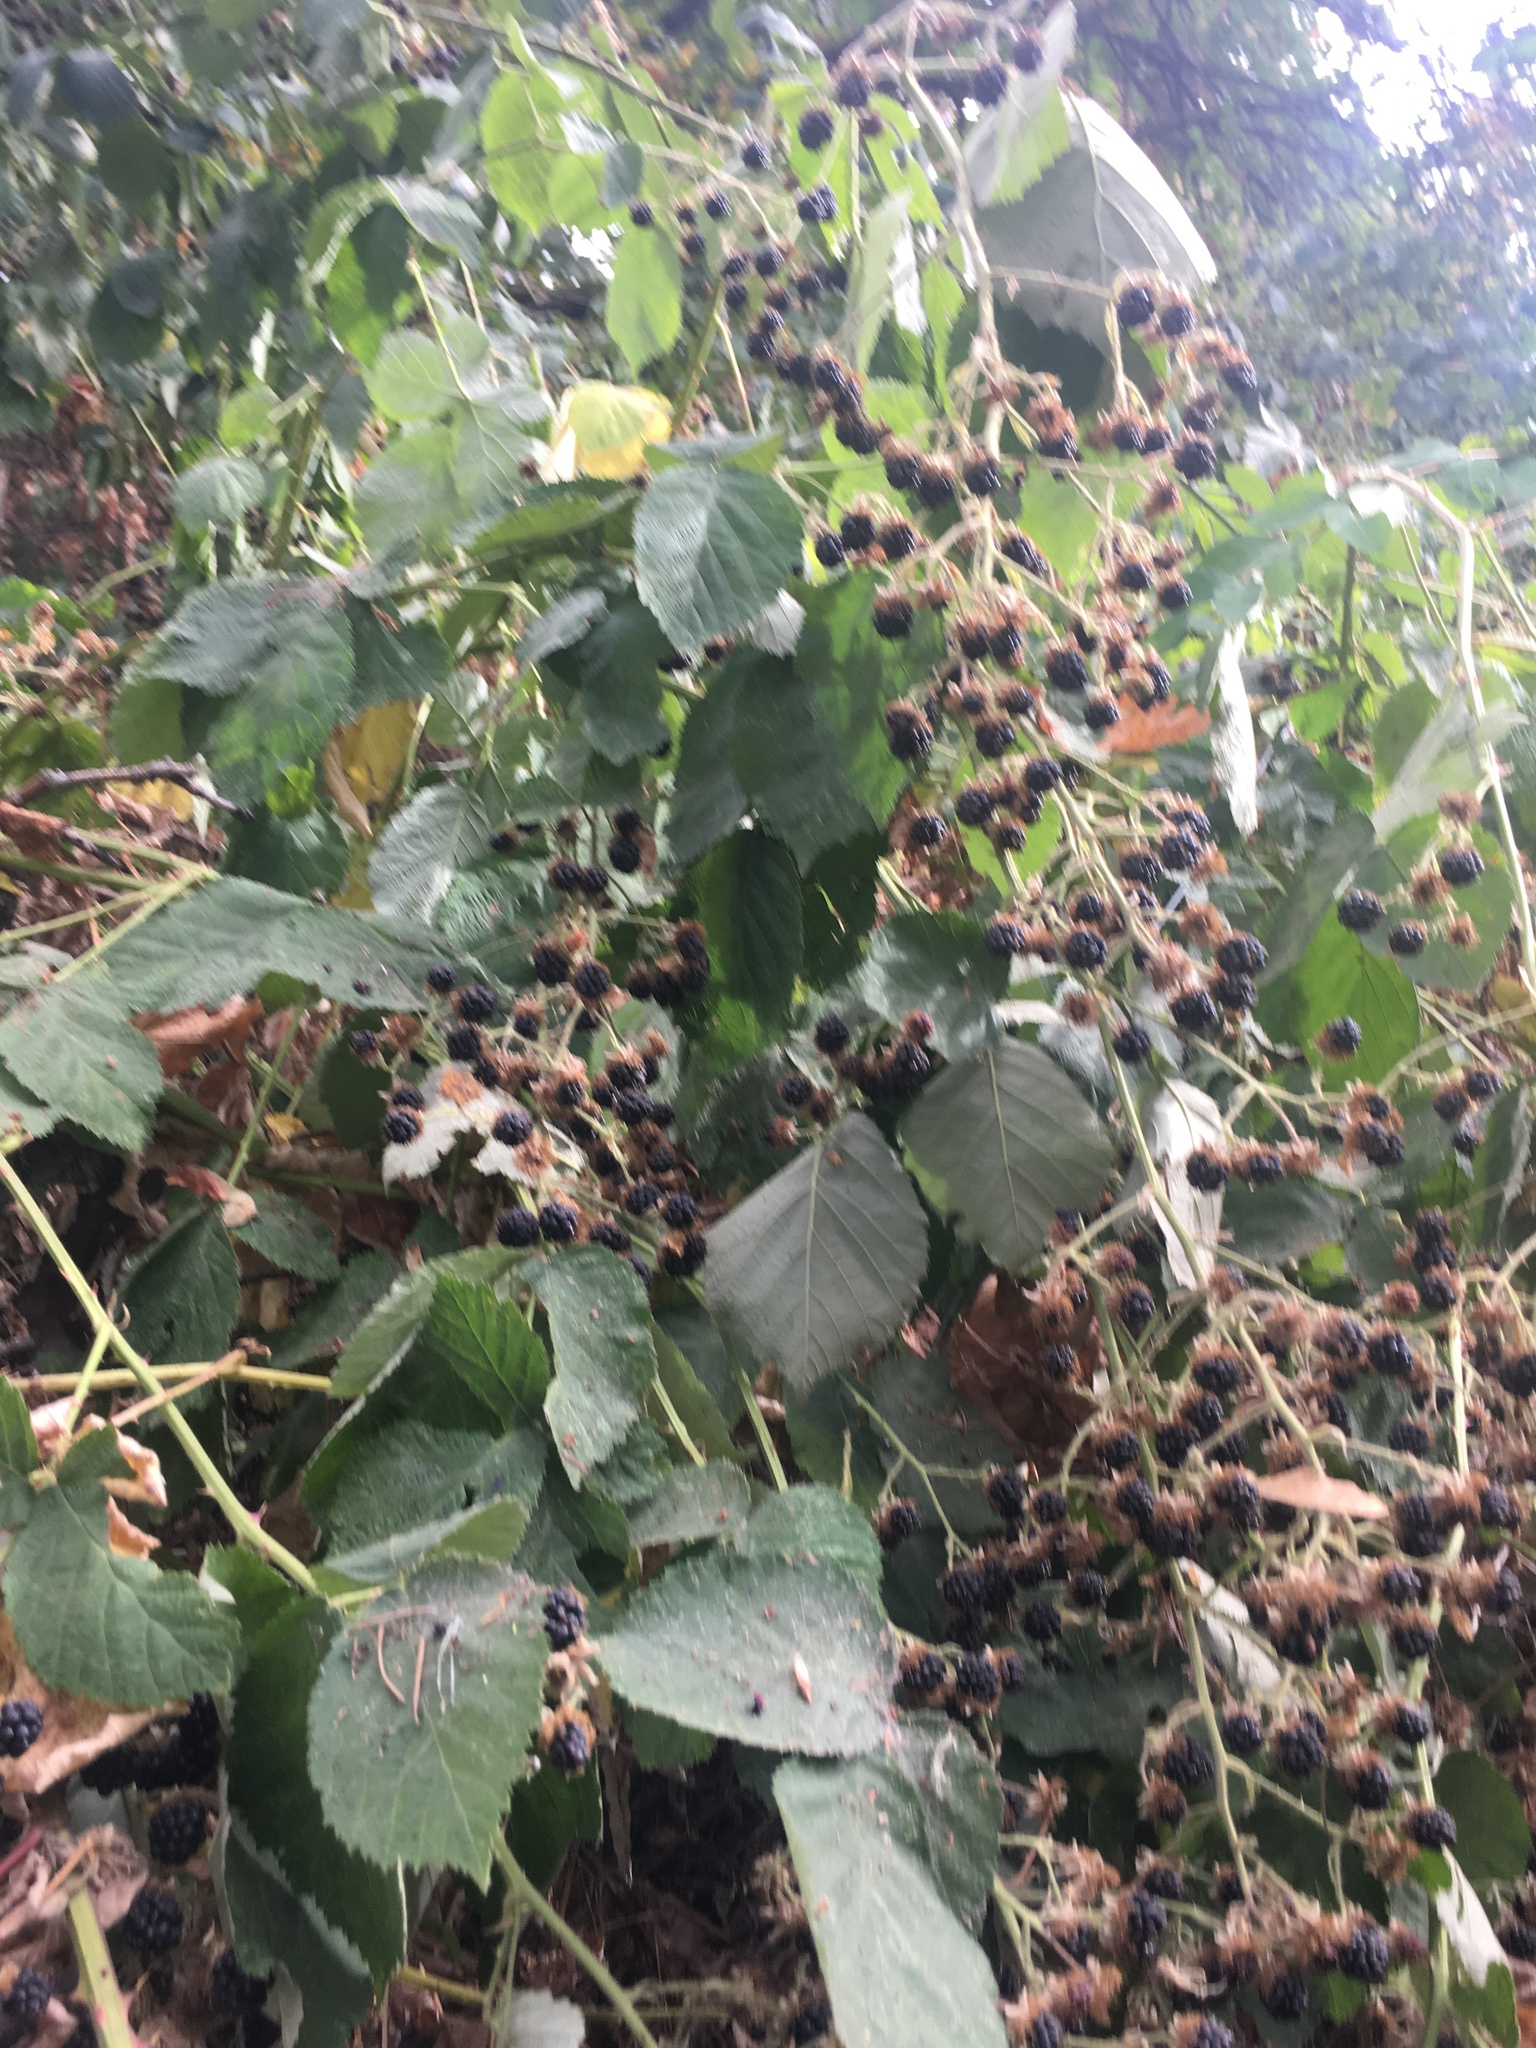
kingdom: Plantae
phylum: Tracheophyta
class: Magnoliopsida
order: Rosales
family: Rosaceae
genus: Rubus
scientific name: Rubus armeniacus
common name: Himalayan blackberry
